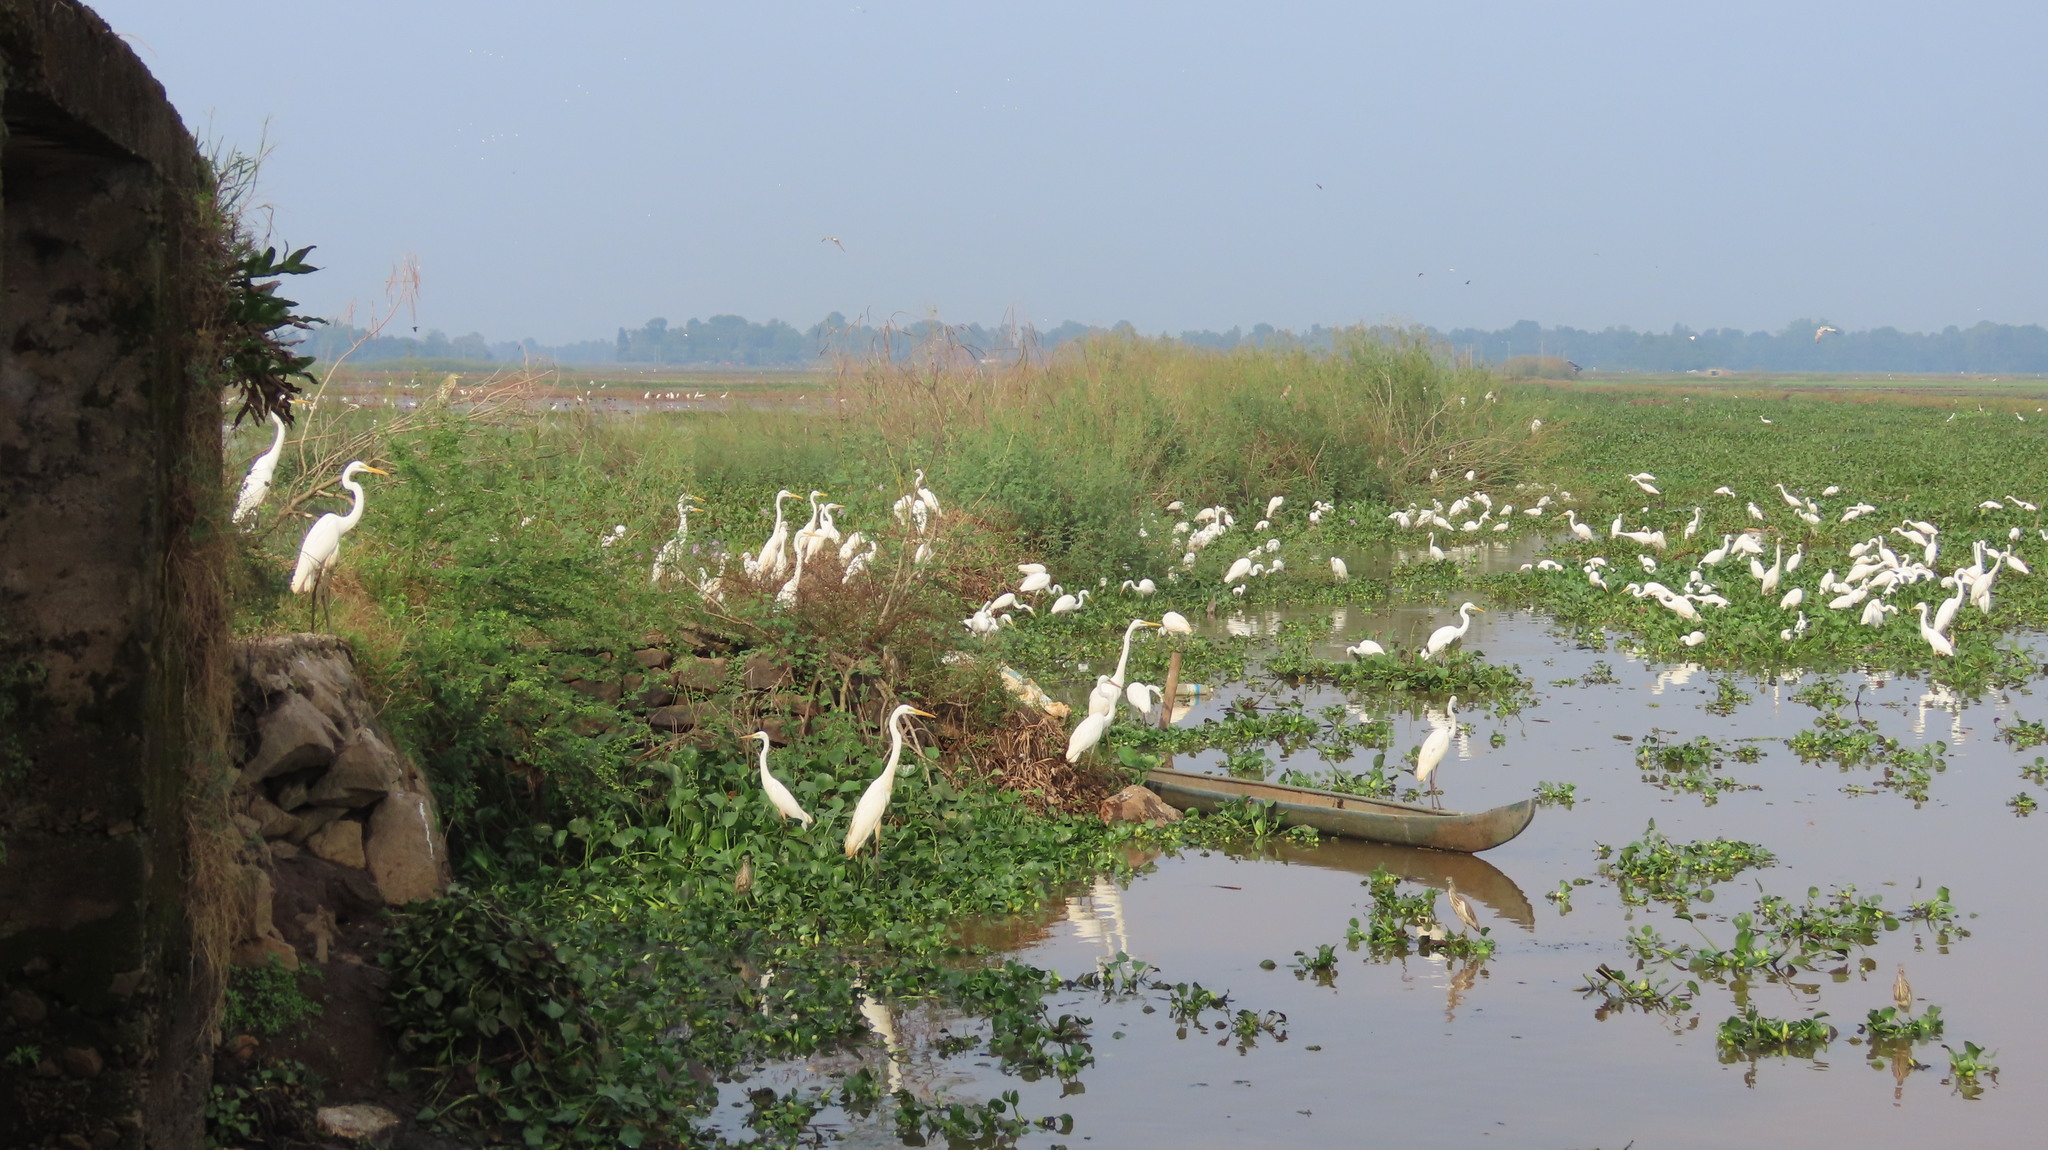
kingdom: Animalia
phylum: Chordata
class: Aves
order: Pelecaniformes
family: Ardeidae
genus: Egretta
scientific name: Egretta intermedia
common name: Intermediate egret
